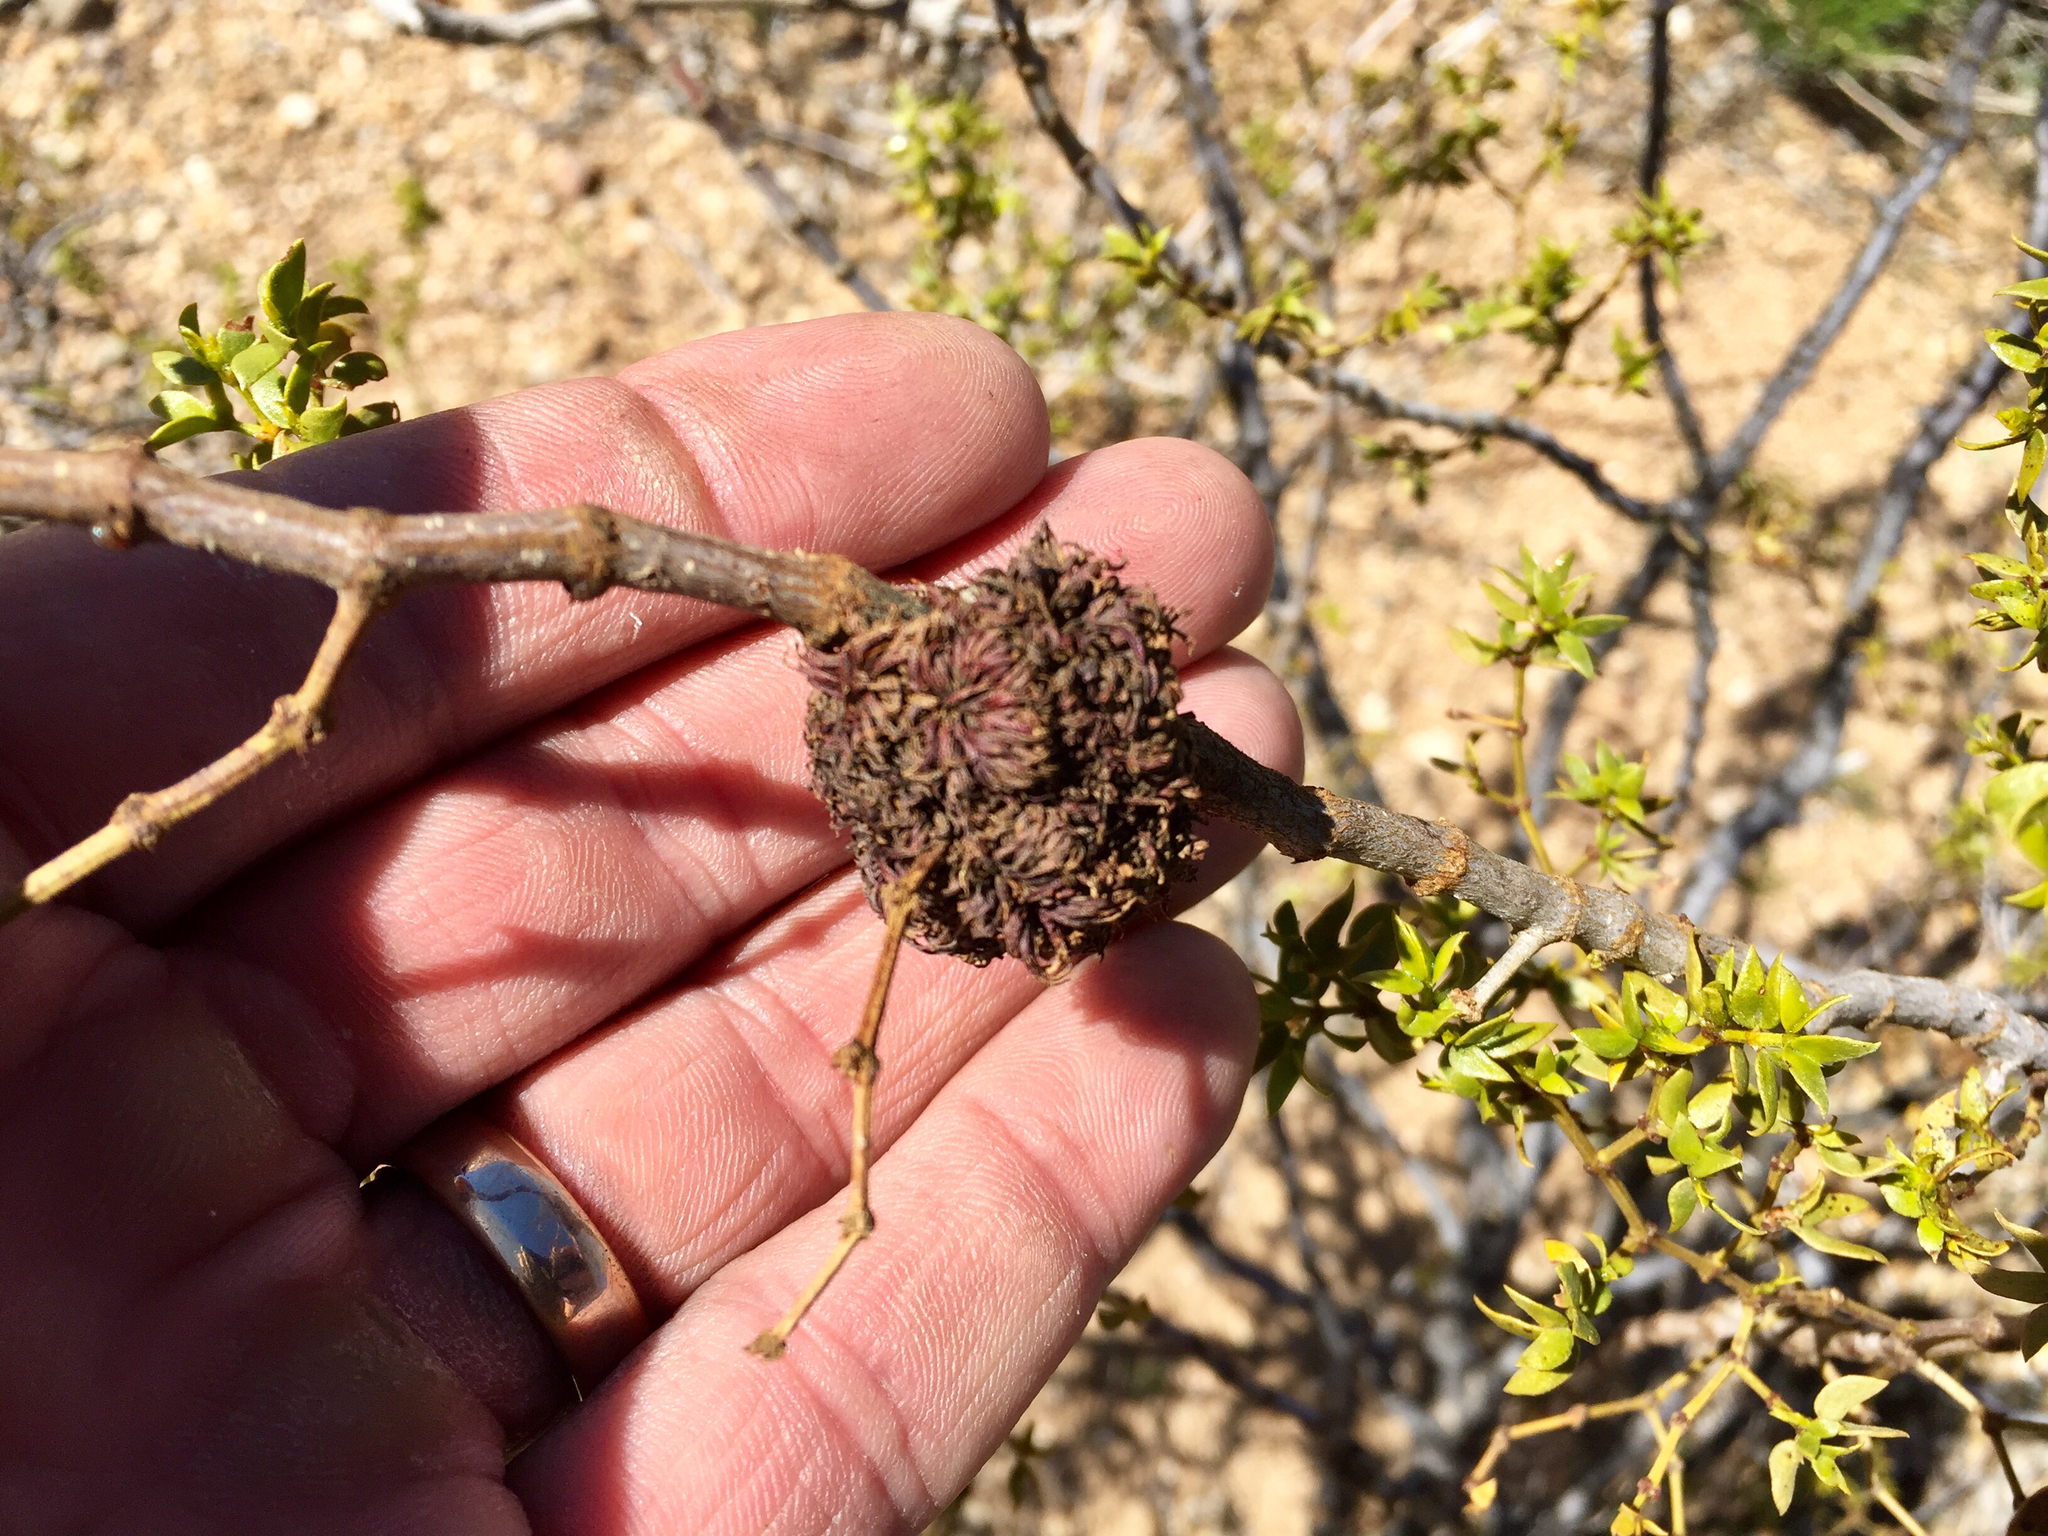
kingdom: Animalia
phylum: Arthropoda
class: Insecta
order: Diptera
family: Cecidomyiidae
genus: Asphondylia
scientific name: Asphondylia auripila
